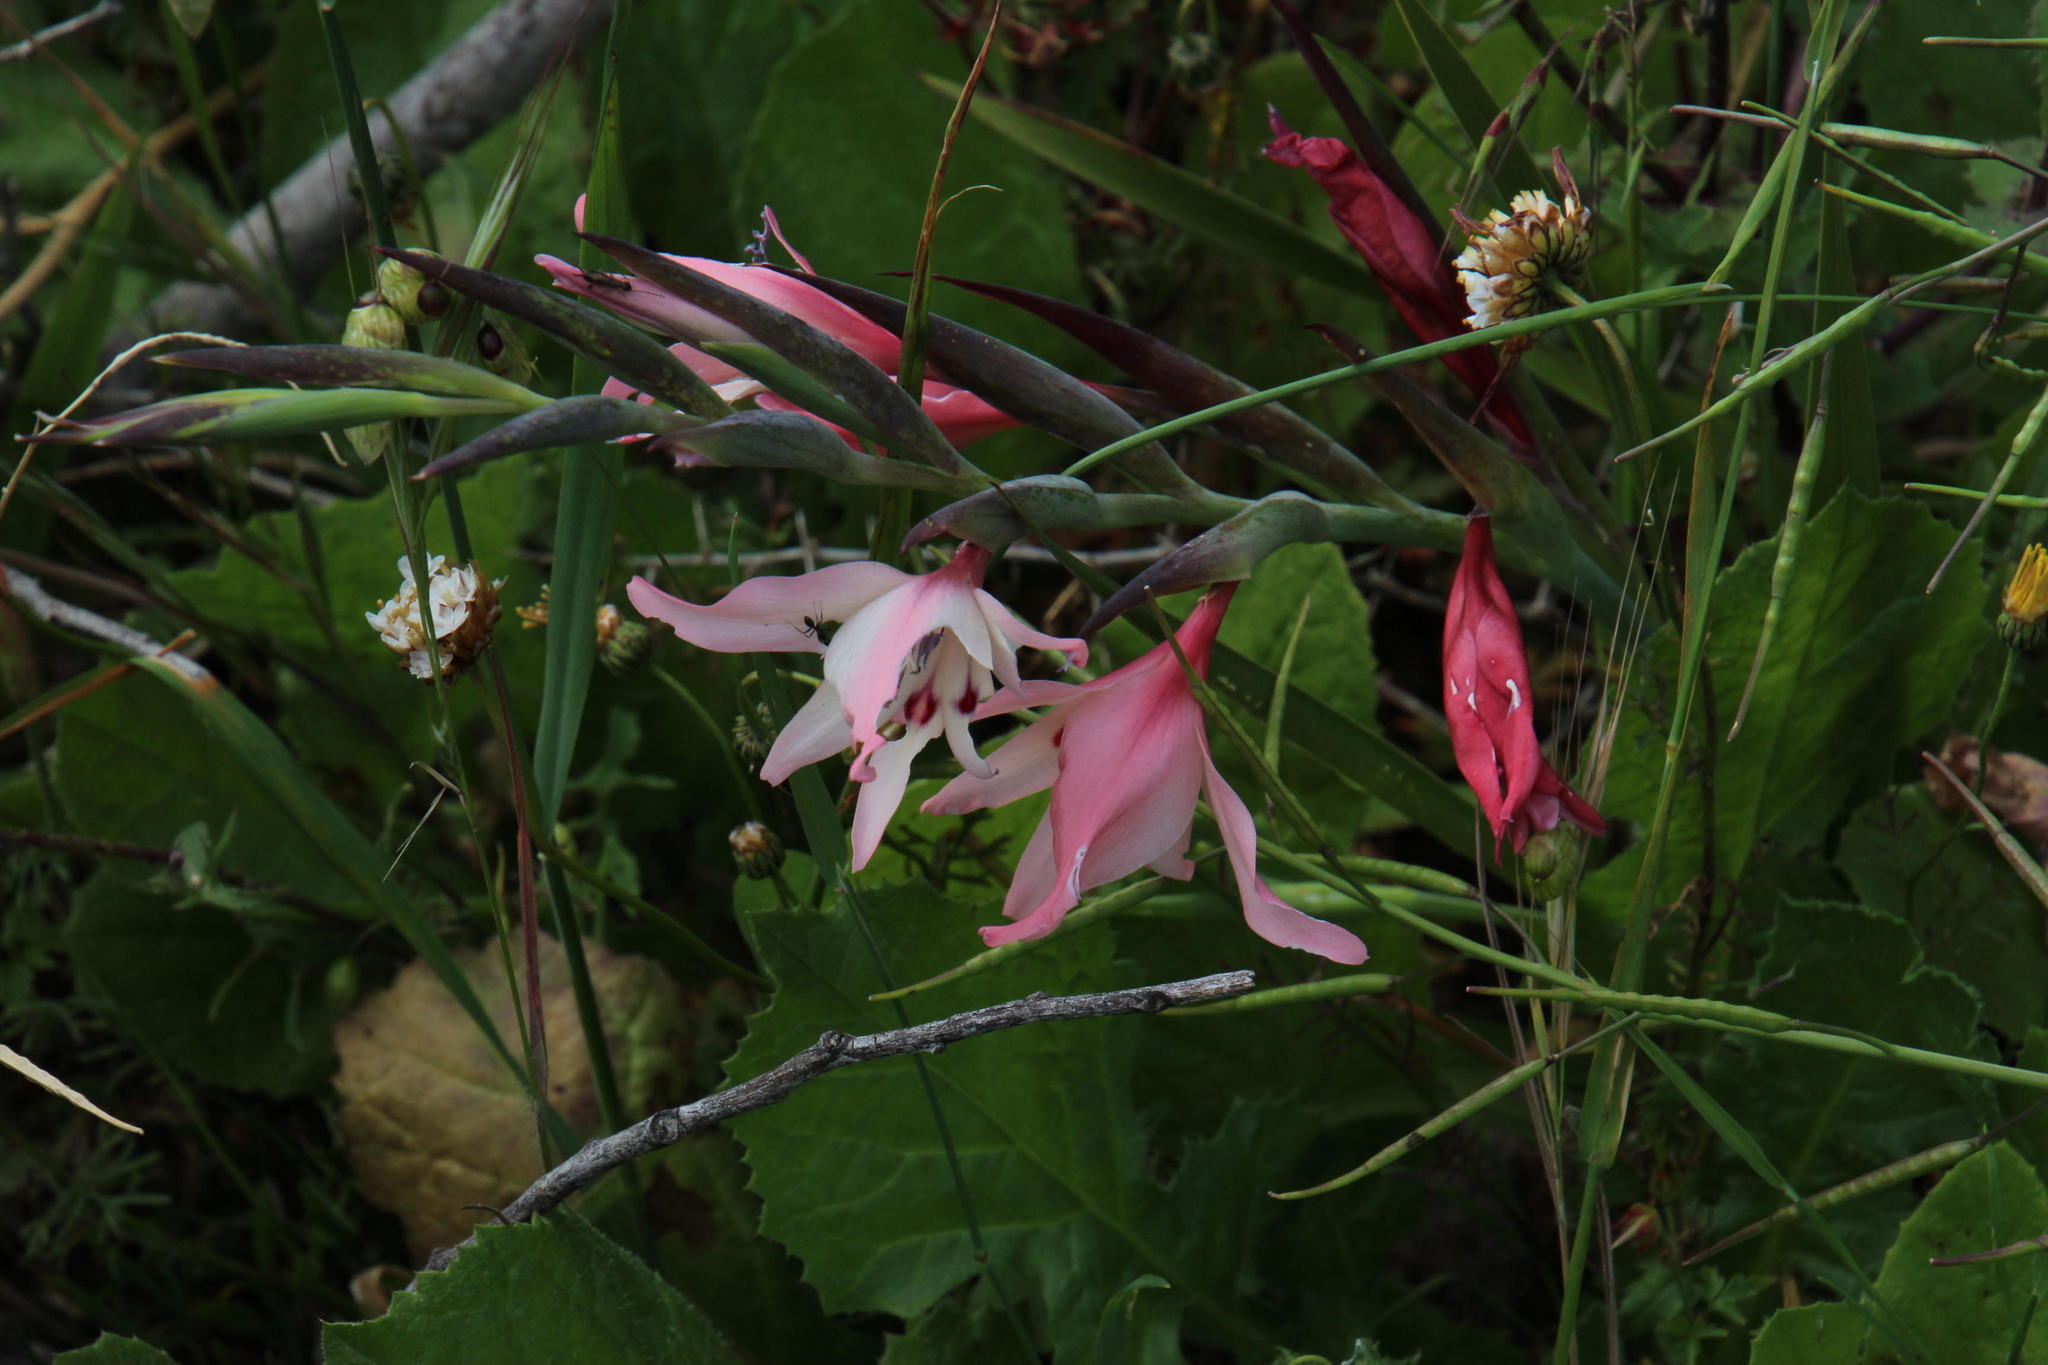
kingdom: Plantae
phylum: Tracheophyta
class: Liliopsida
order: Asparagales
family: Iridaceae
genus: Gladiolus
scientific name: Gladiolus carneus
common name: Painted-lady
